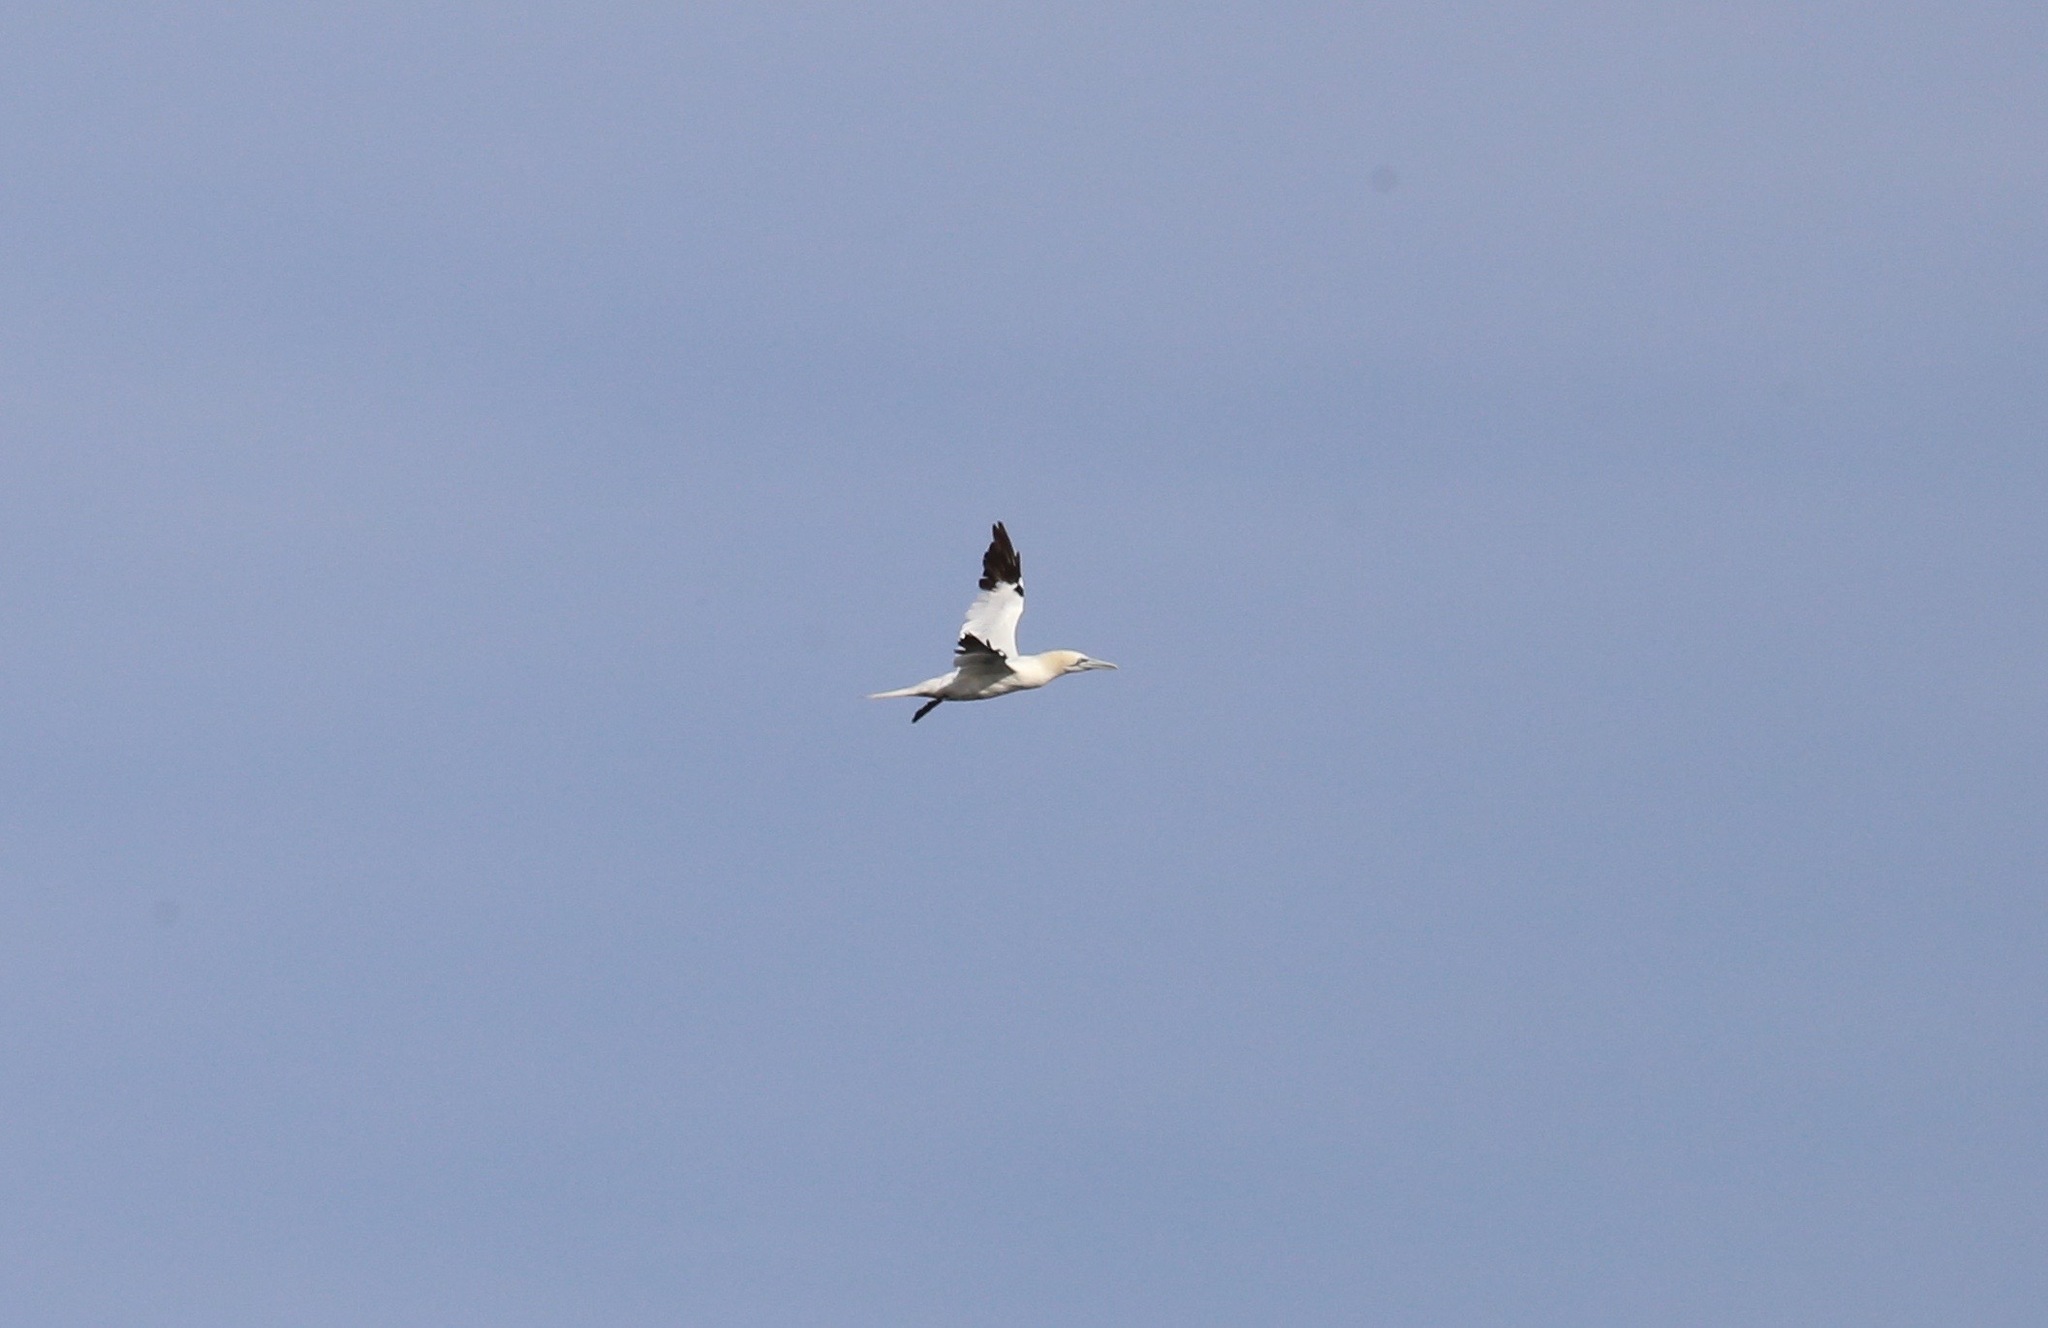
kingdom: Animalia
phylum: Chordata
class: Aves
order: Suliformes
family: Sulidae
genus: Morus
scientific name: Morus bassanus
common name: Northern gannet
